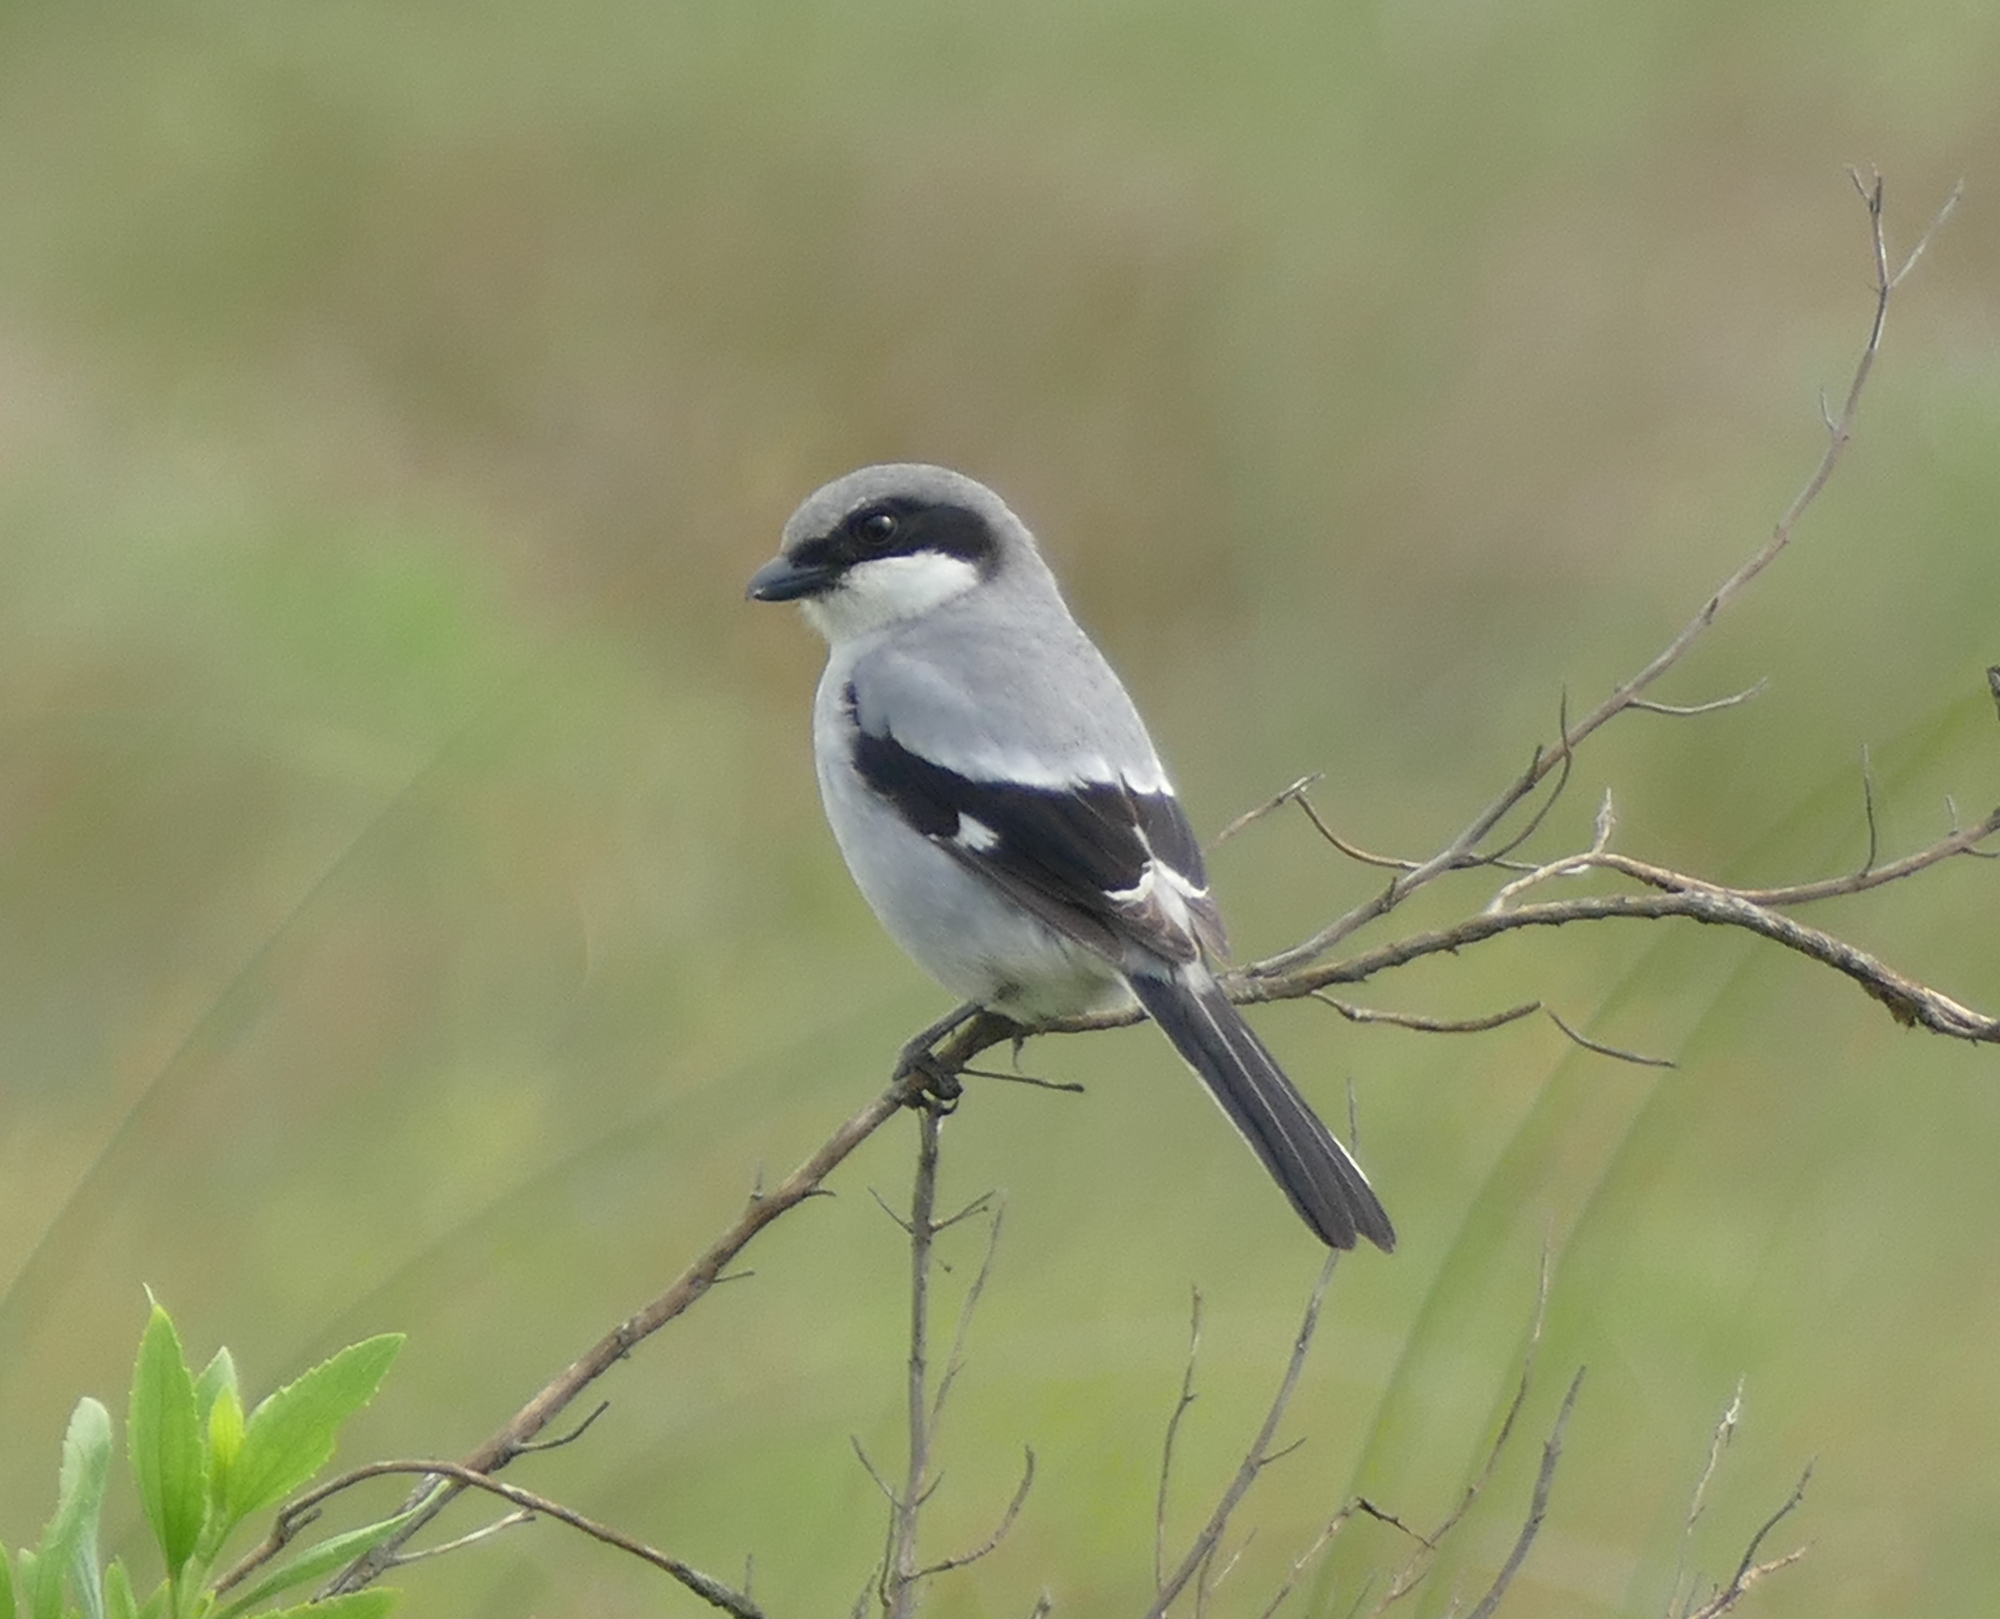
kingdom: Animalia
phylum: Chordata
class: Aves
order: Passeriformes
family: Laniidae
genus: Lanius
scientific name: Lanius ludovicianus
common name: Loggerhead shrike
